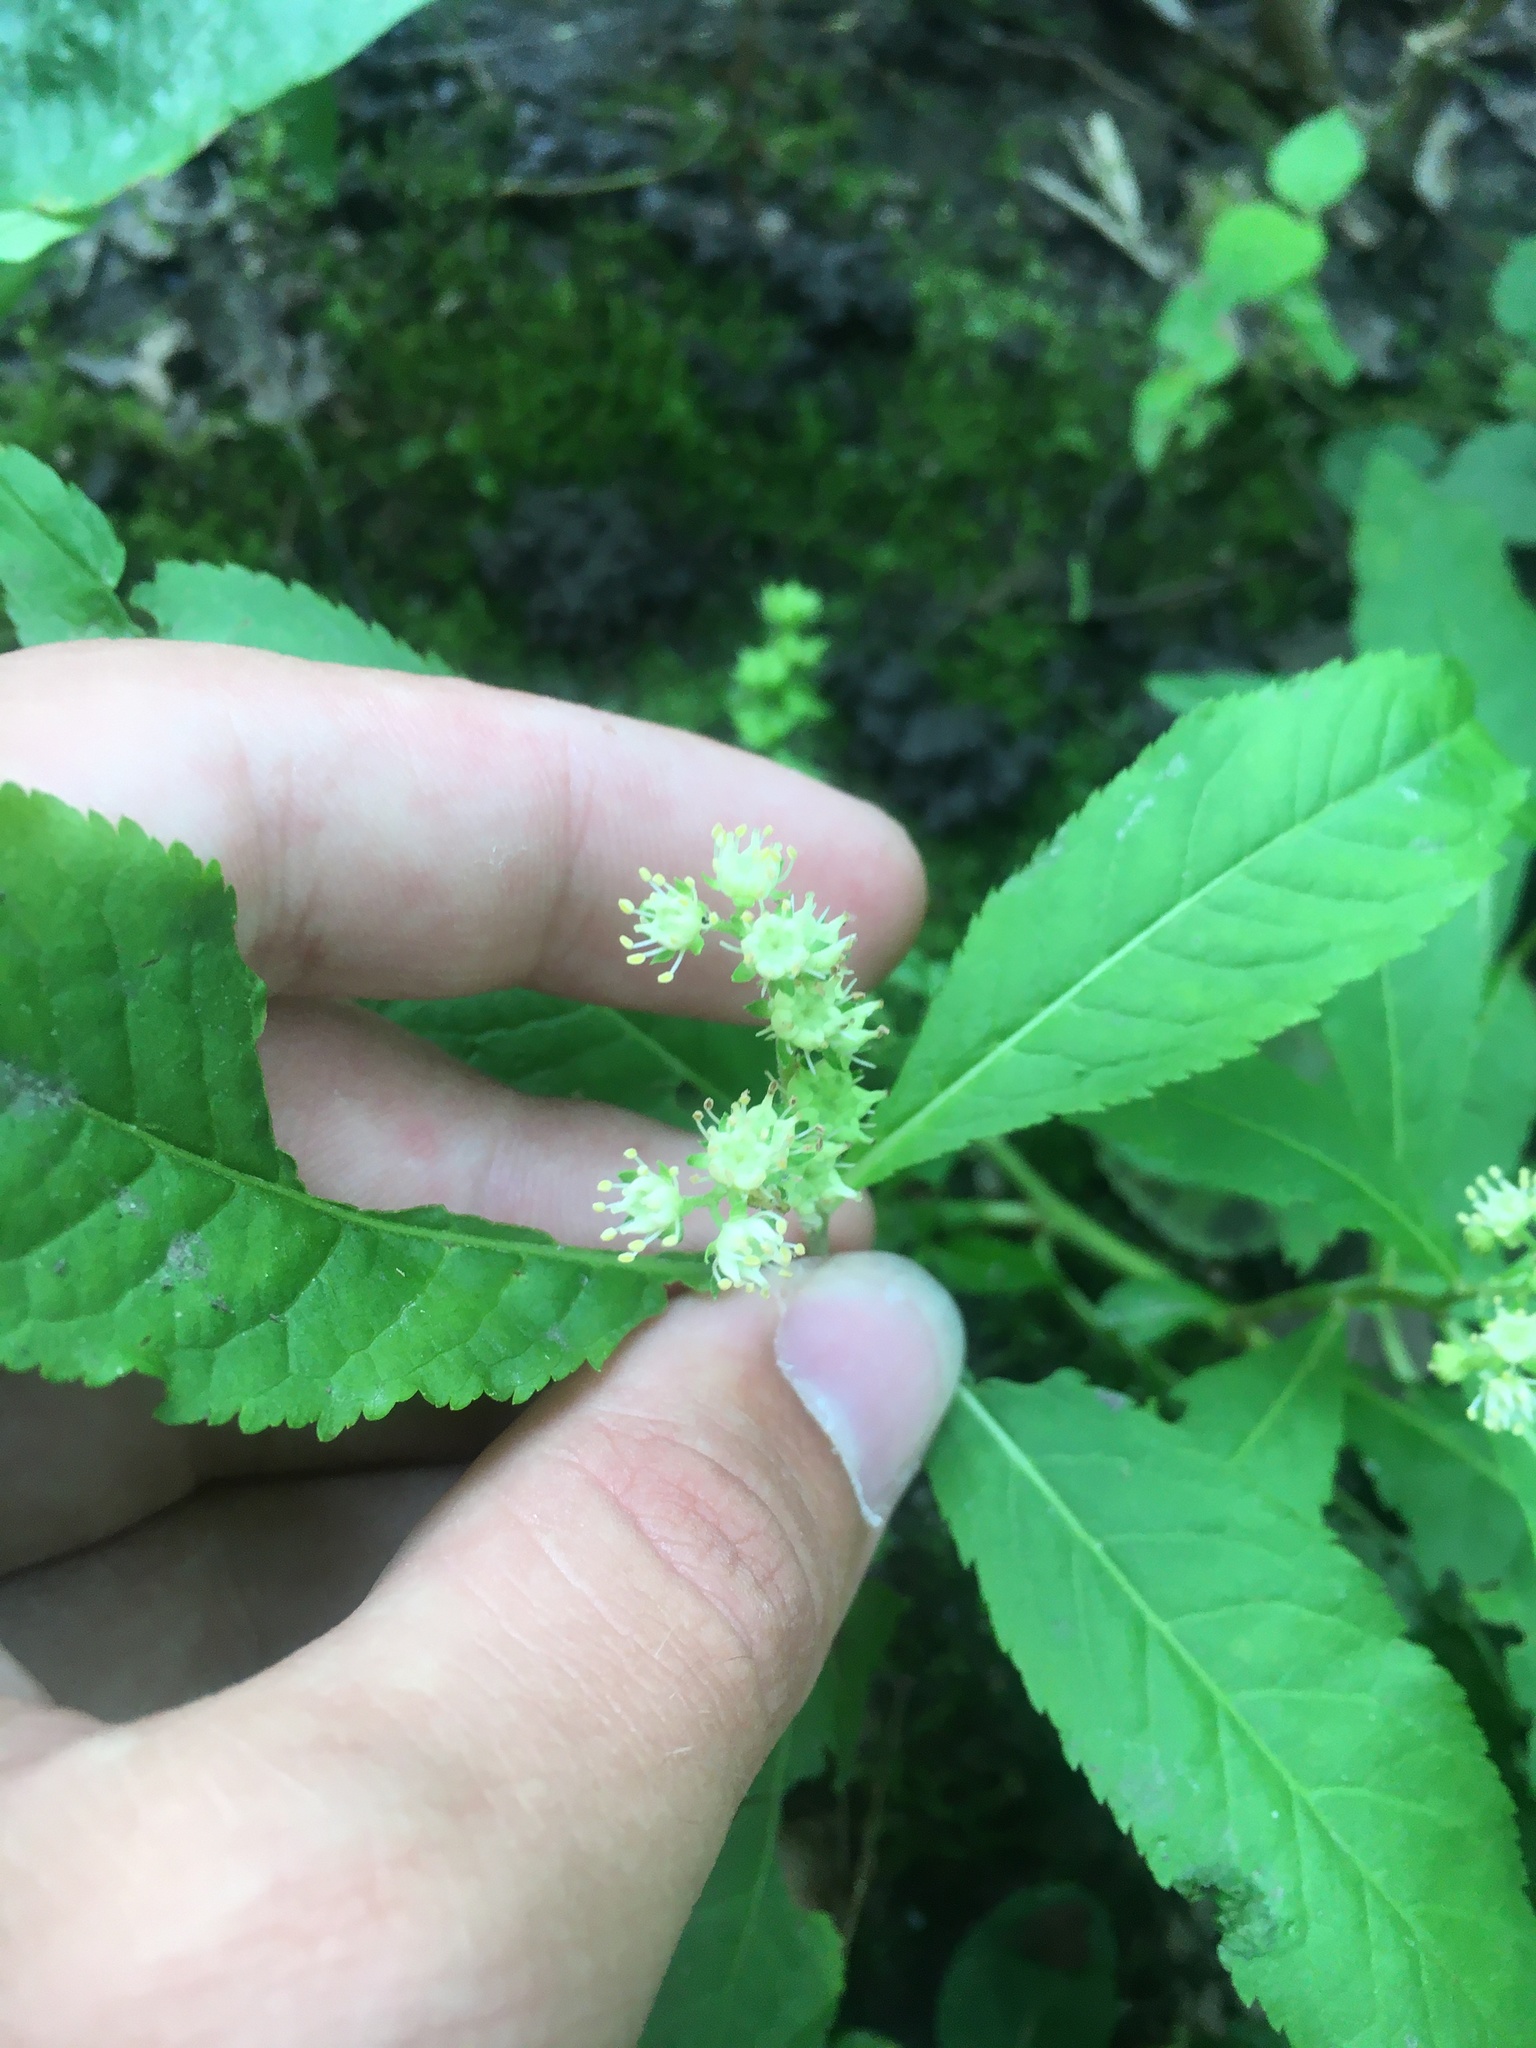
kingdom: Plantae
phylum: Tracheophyta
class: Magnoliopsida
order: Saxifragales
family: Penthoraceae
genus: Penthorum
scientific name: Penthorum sedoides
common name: Ditch stonecrop
